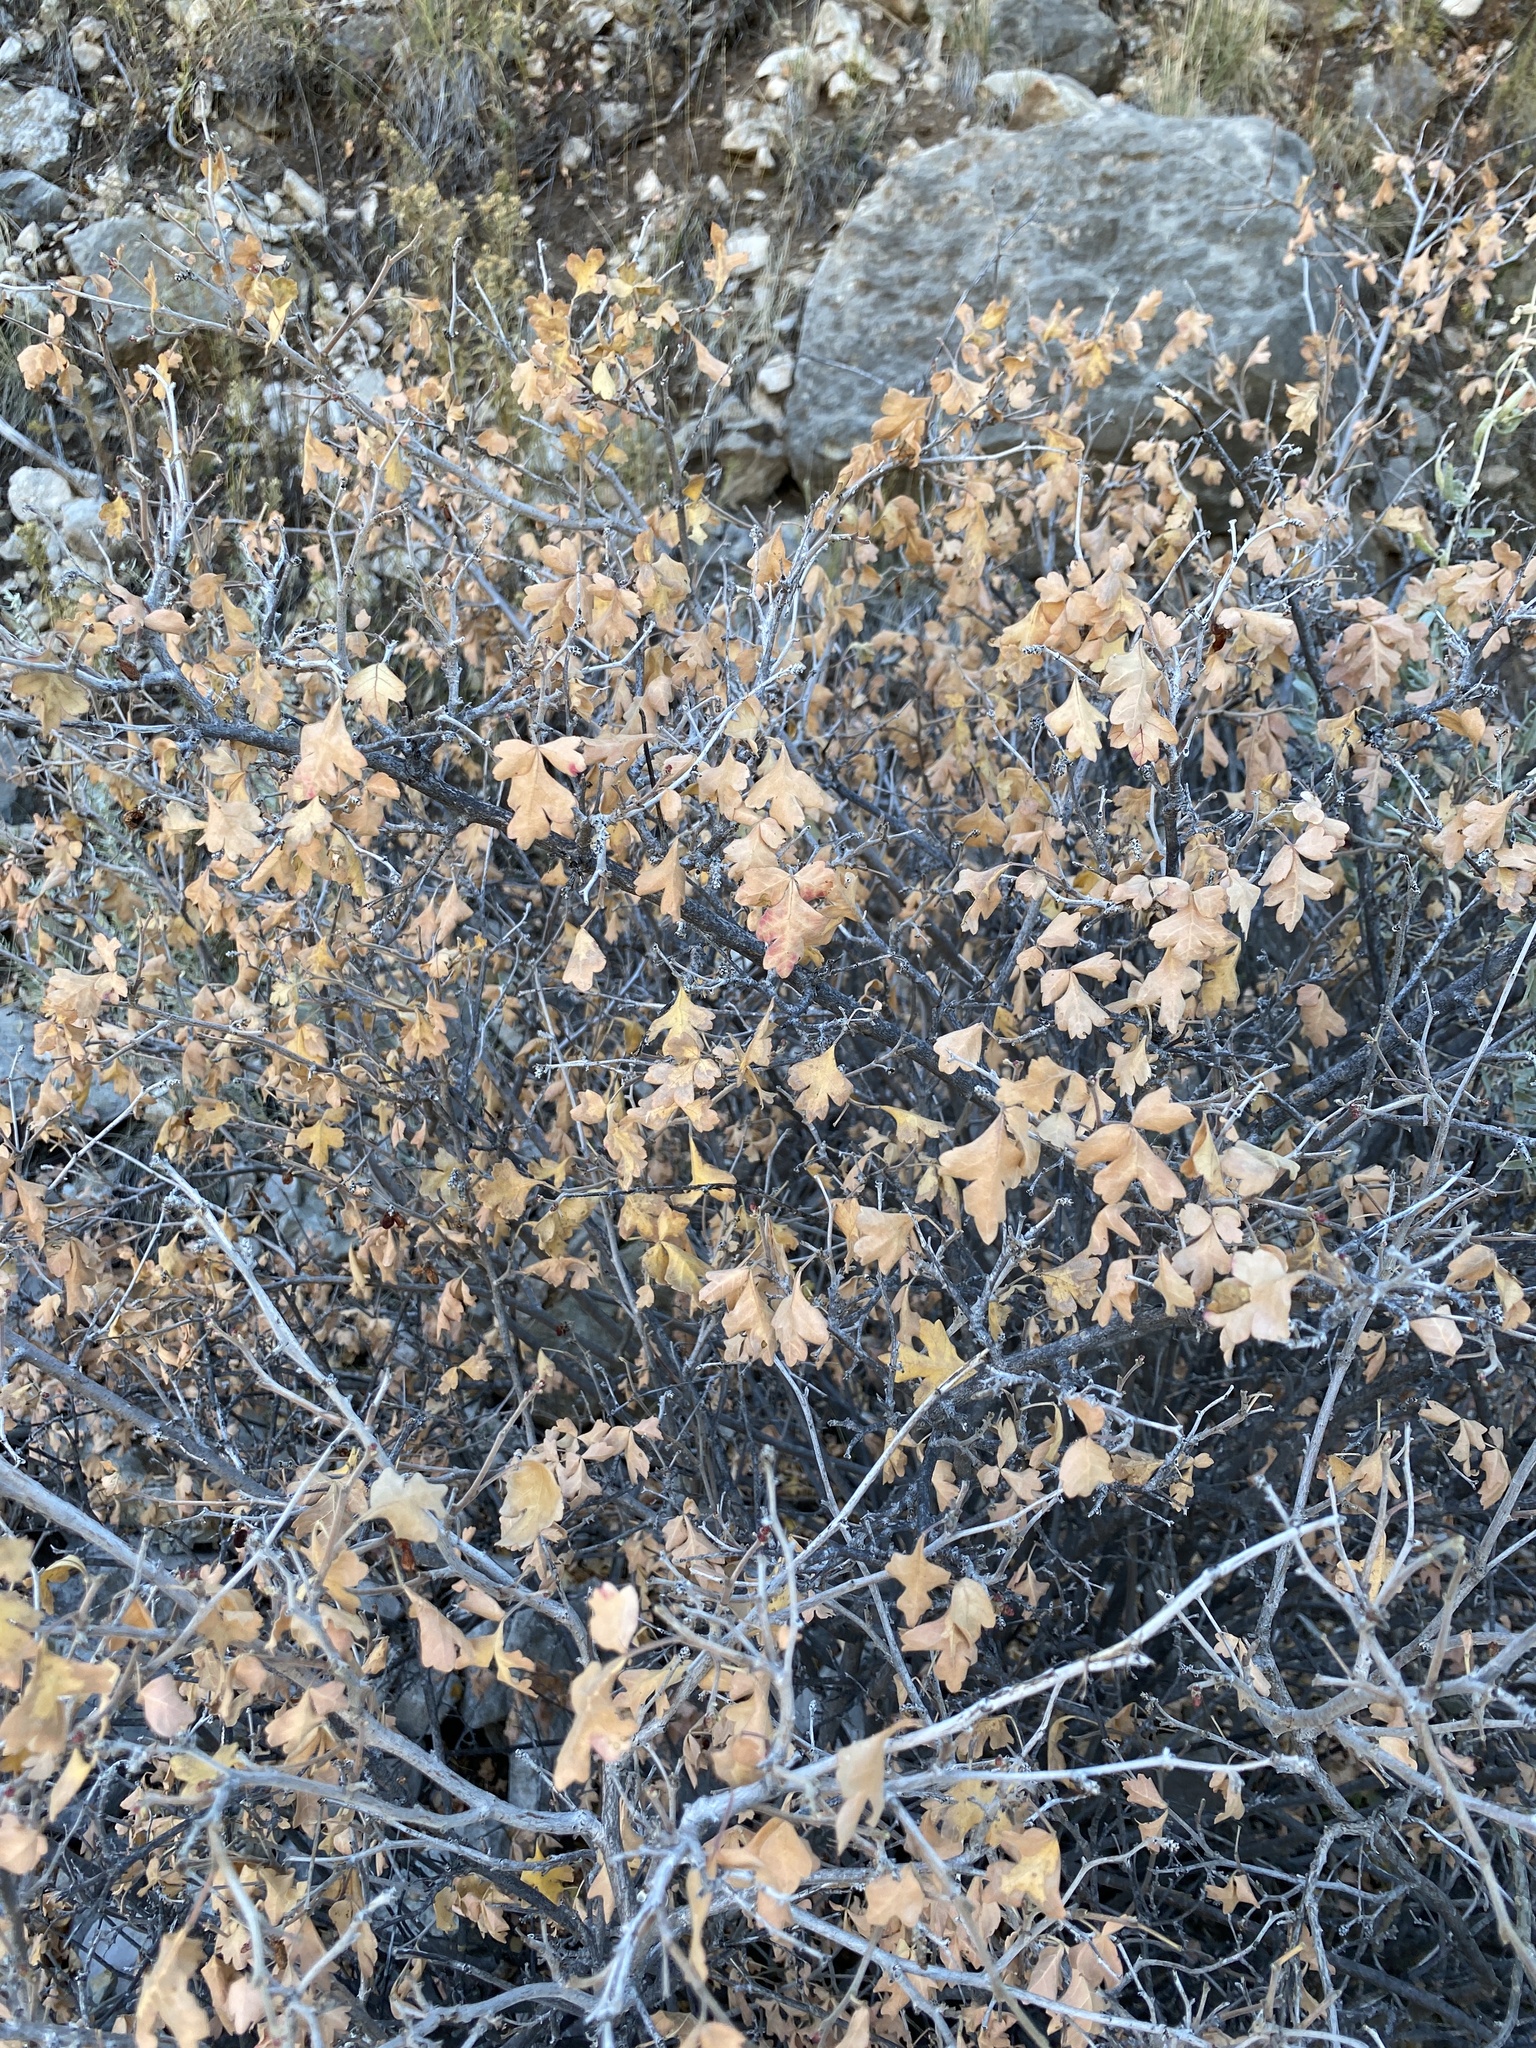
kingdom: Plantae
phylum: Tracheophyta
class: Magnoliopsida
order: Sapindales
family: Anacardiaceae
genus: Rhus
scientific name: Rhus aromatica
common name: Aromatic sumac
